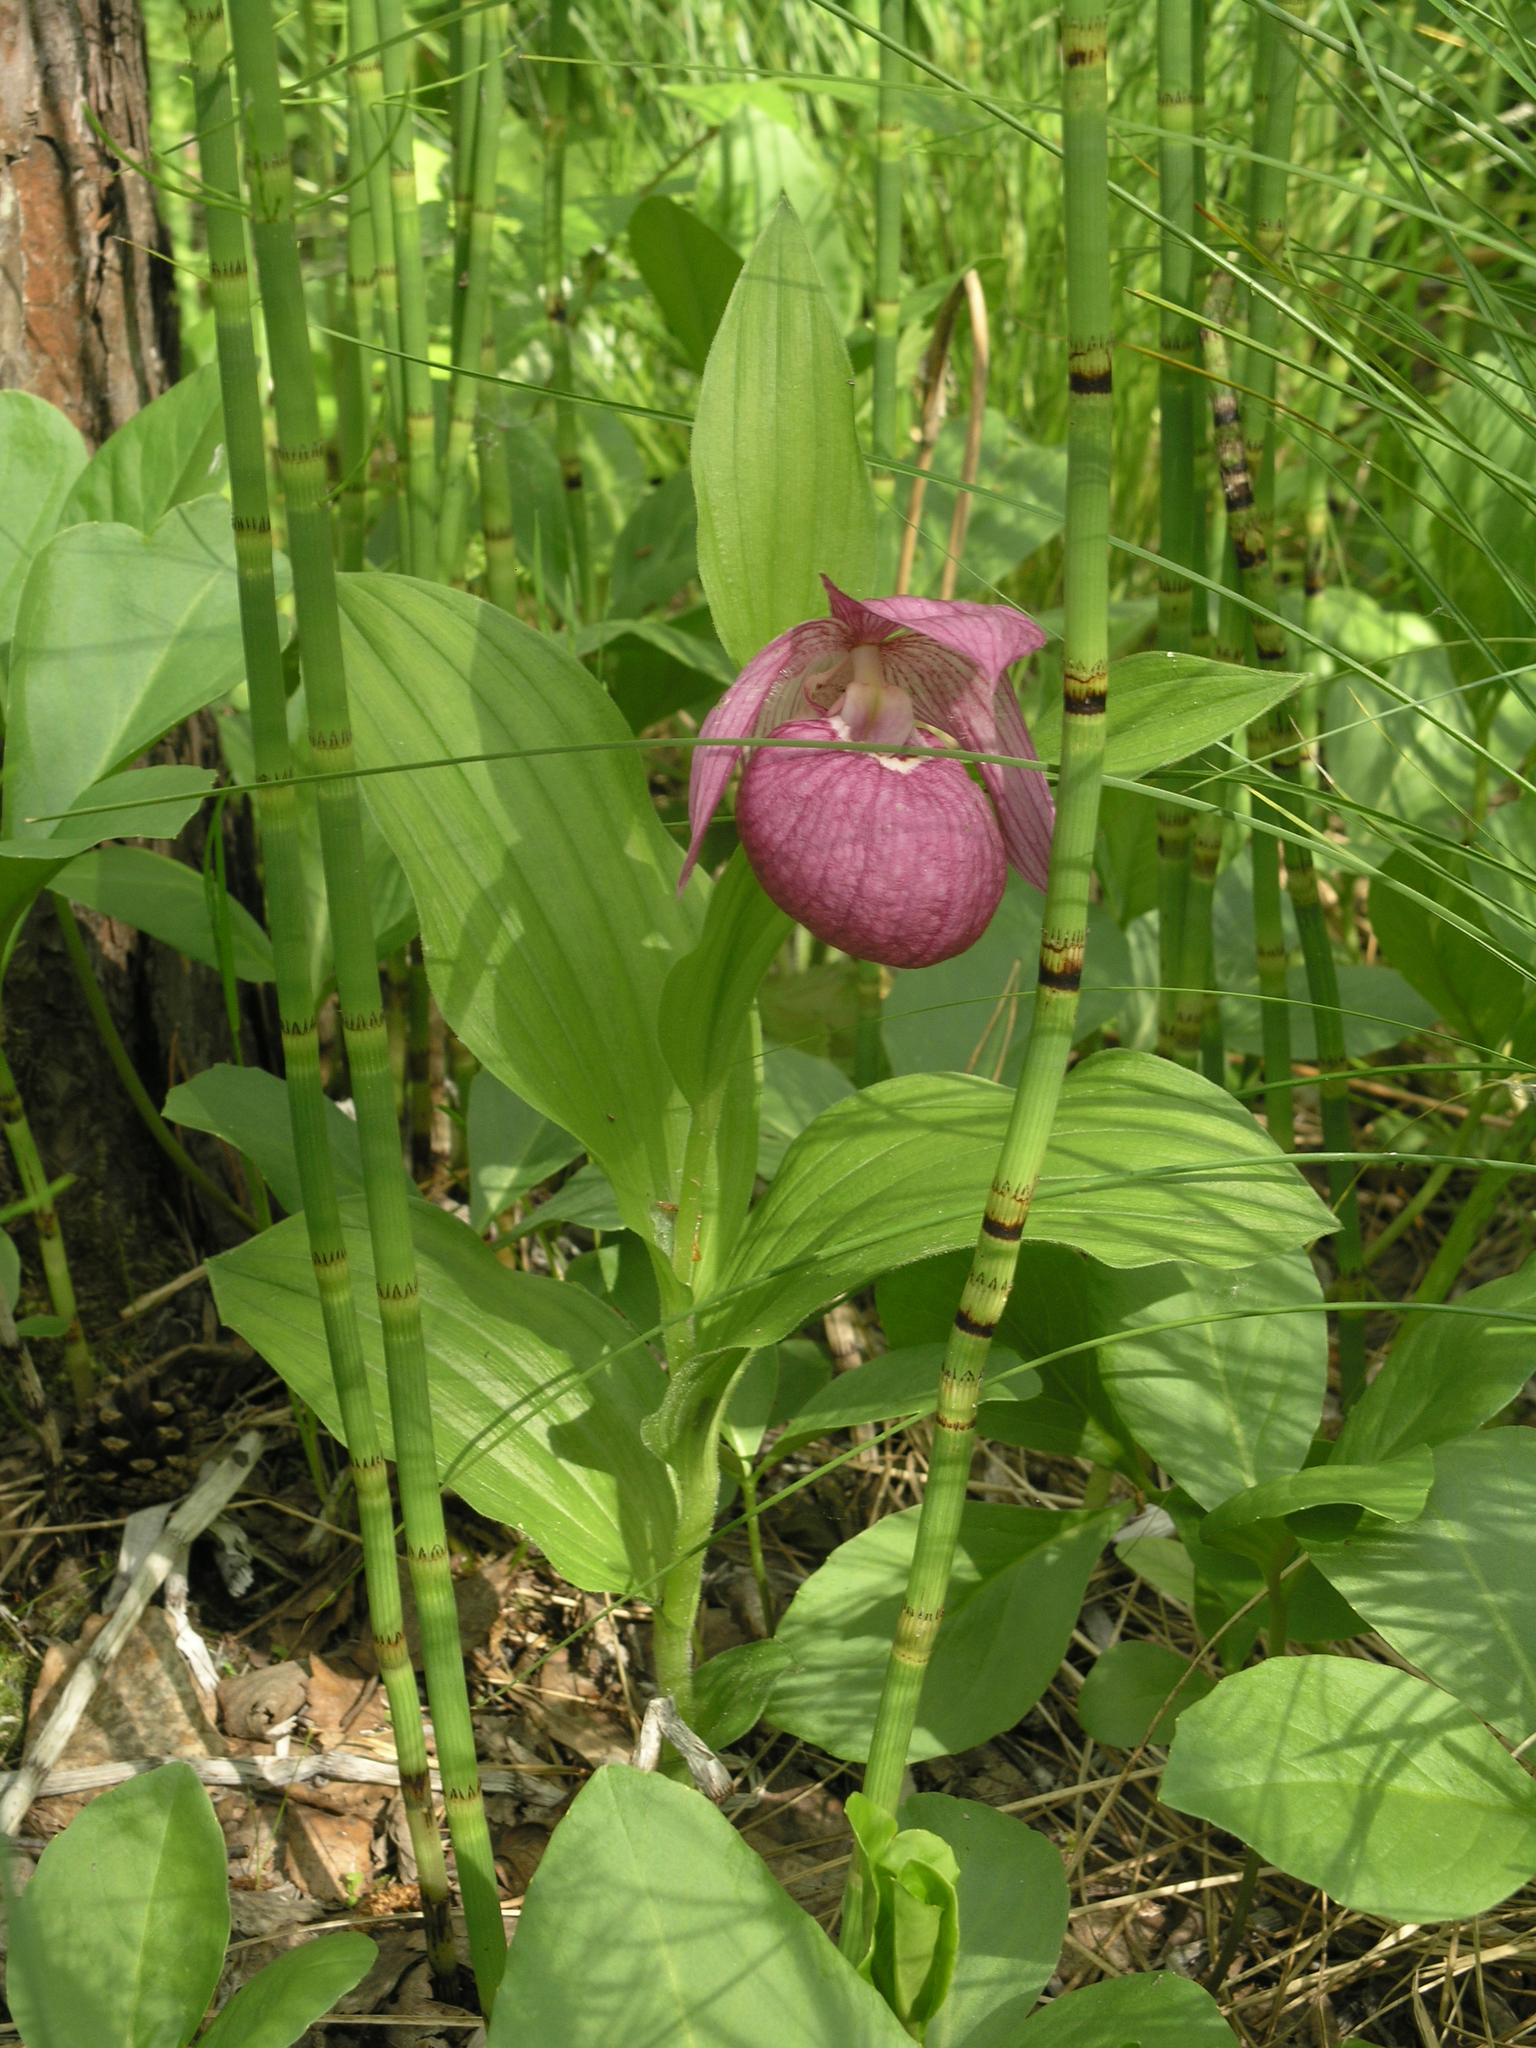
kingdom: Plantae
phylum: Tracheophyta
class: Liliopsida
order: Asparagales
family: Orchidaceae
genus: Cypripedium
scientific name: Cypripedium macranthos
